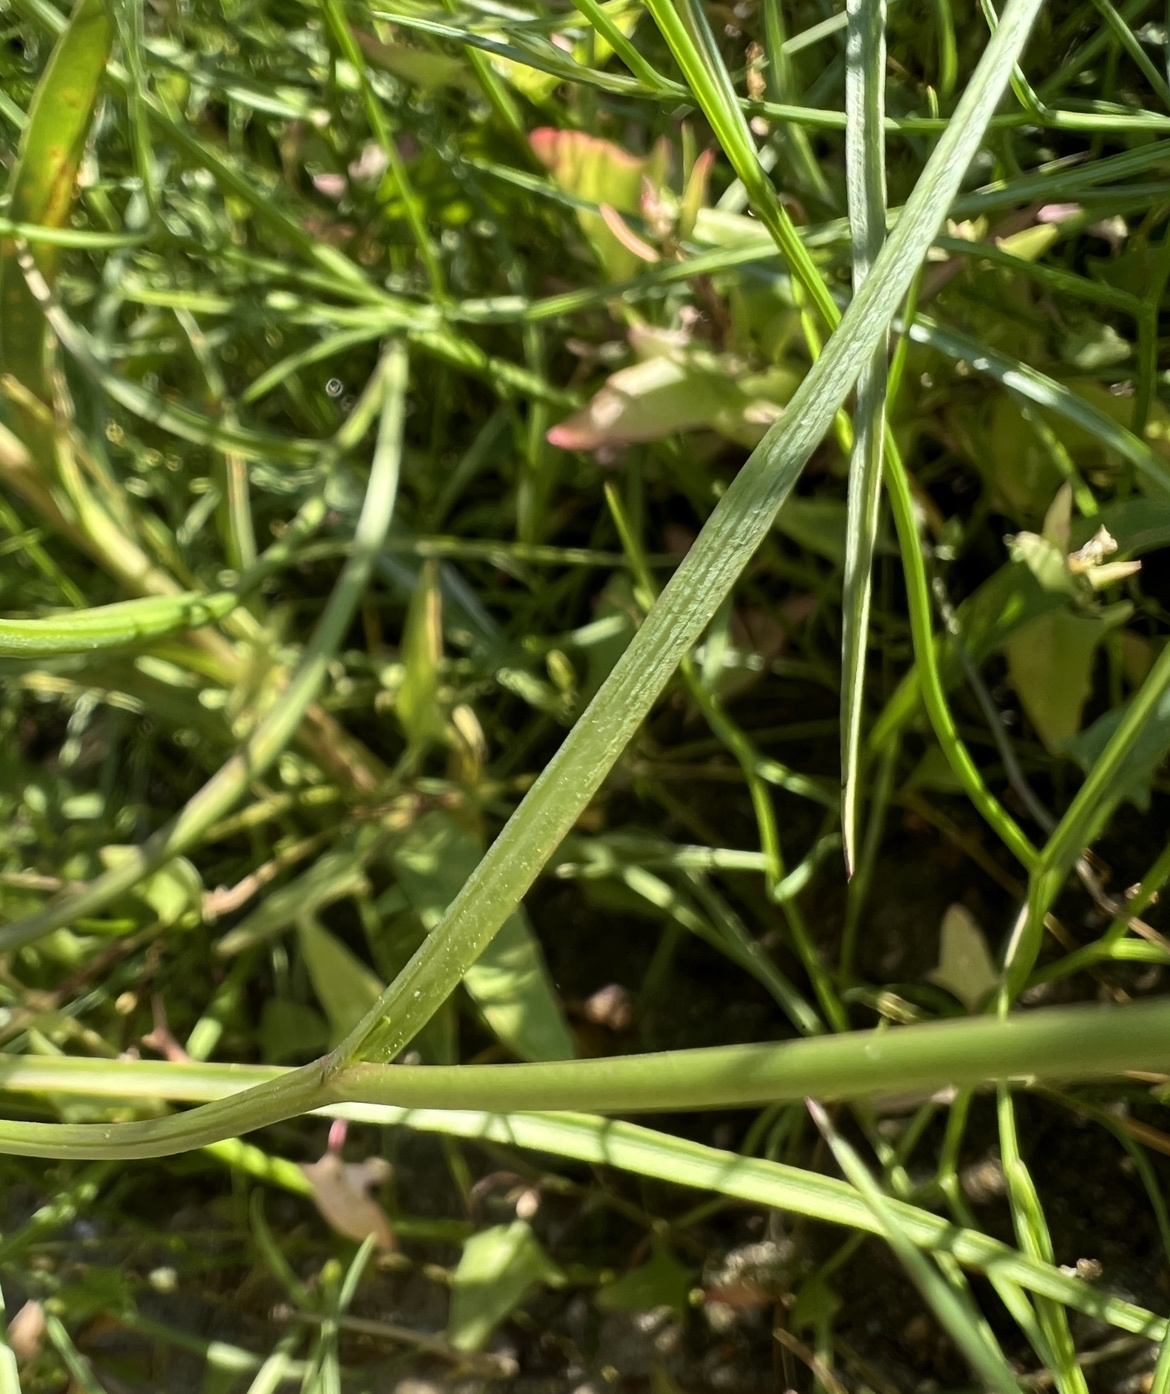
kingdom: Plantae
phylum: Tracheophyta
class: Magnoliopsida
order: Asterales
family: Asteraceae
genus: Symphyotrichum
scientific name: Symphyotrichum tenuifolium
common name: Perennial salt-marsh aster
